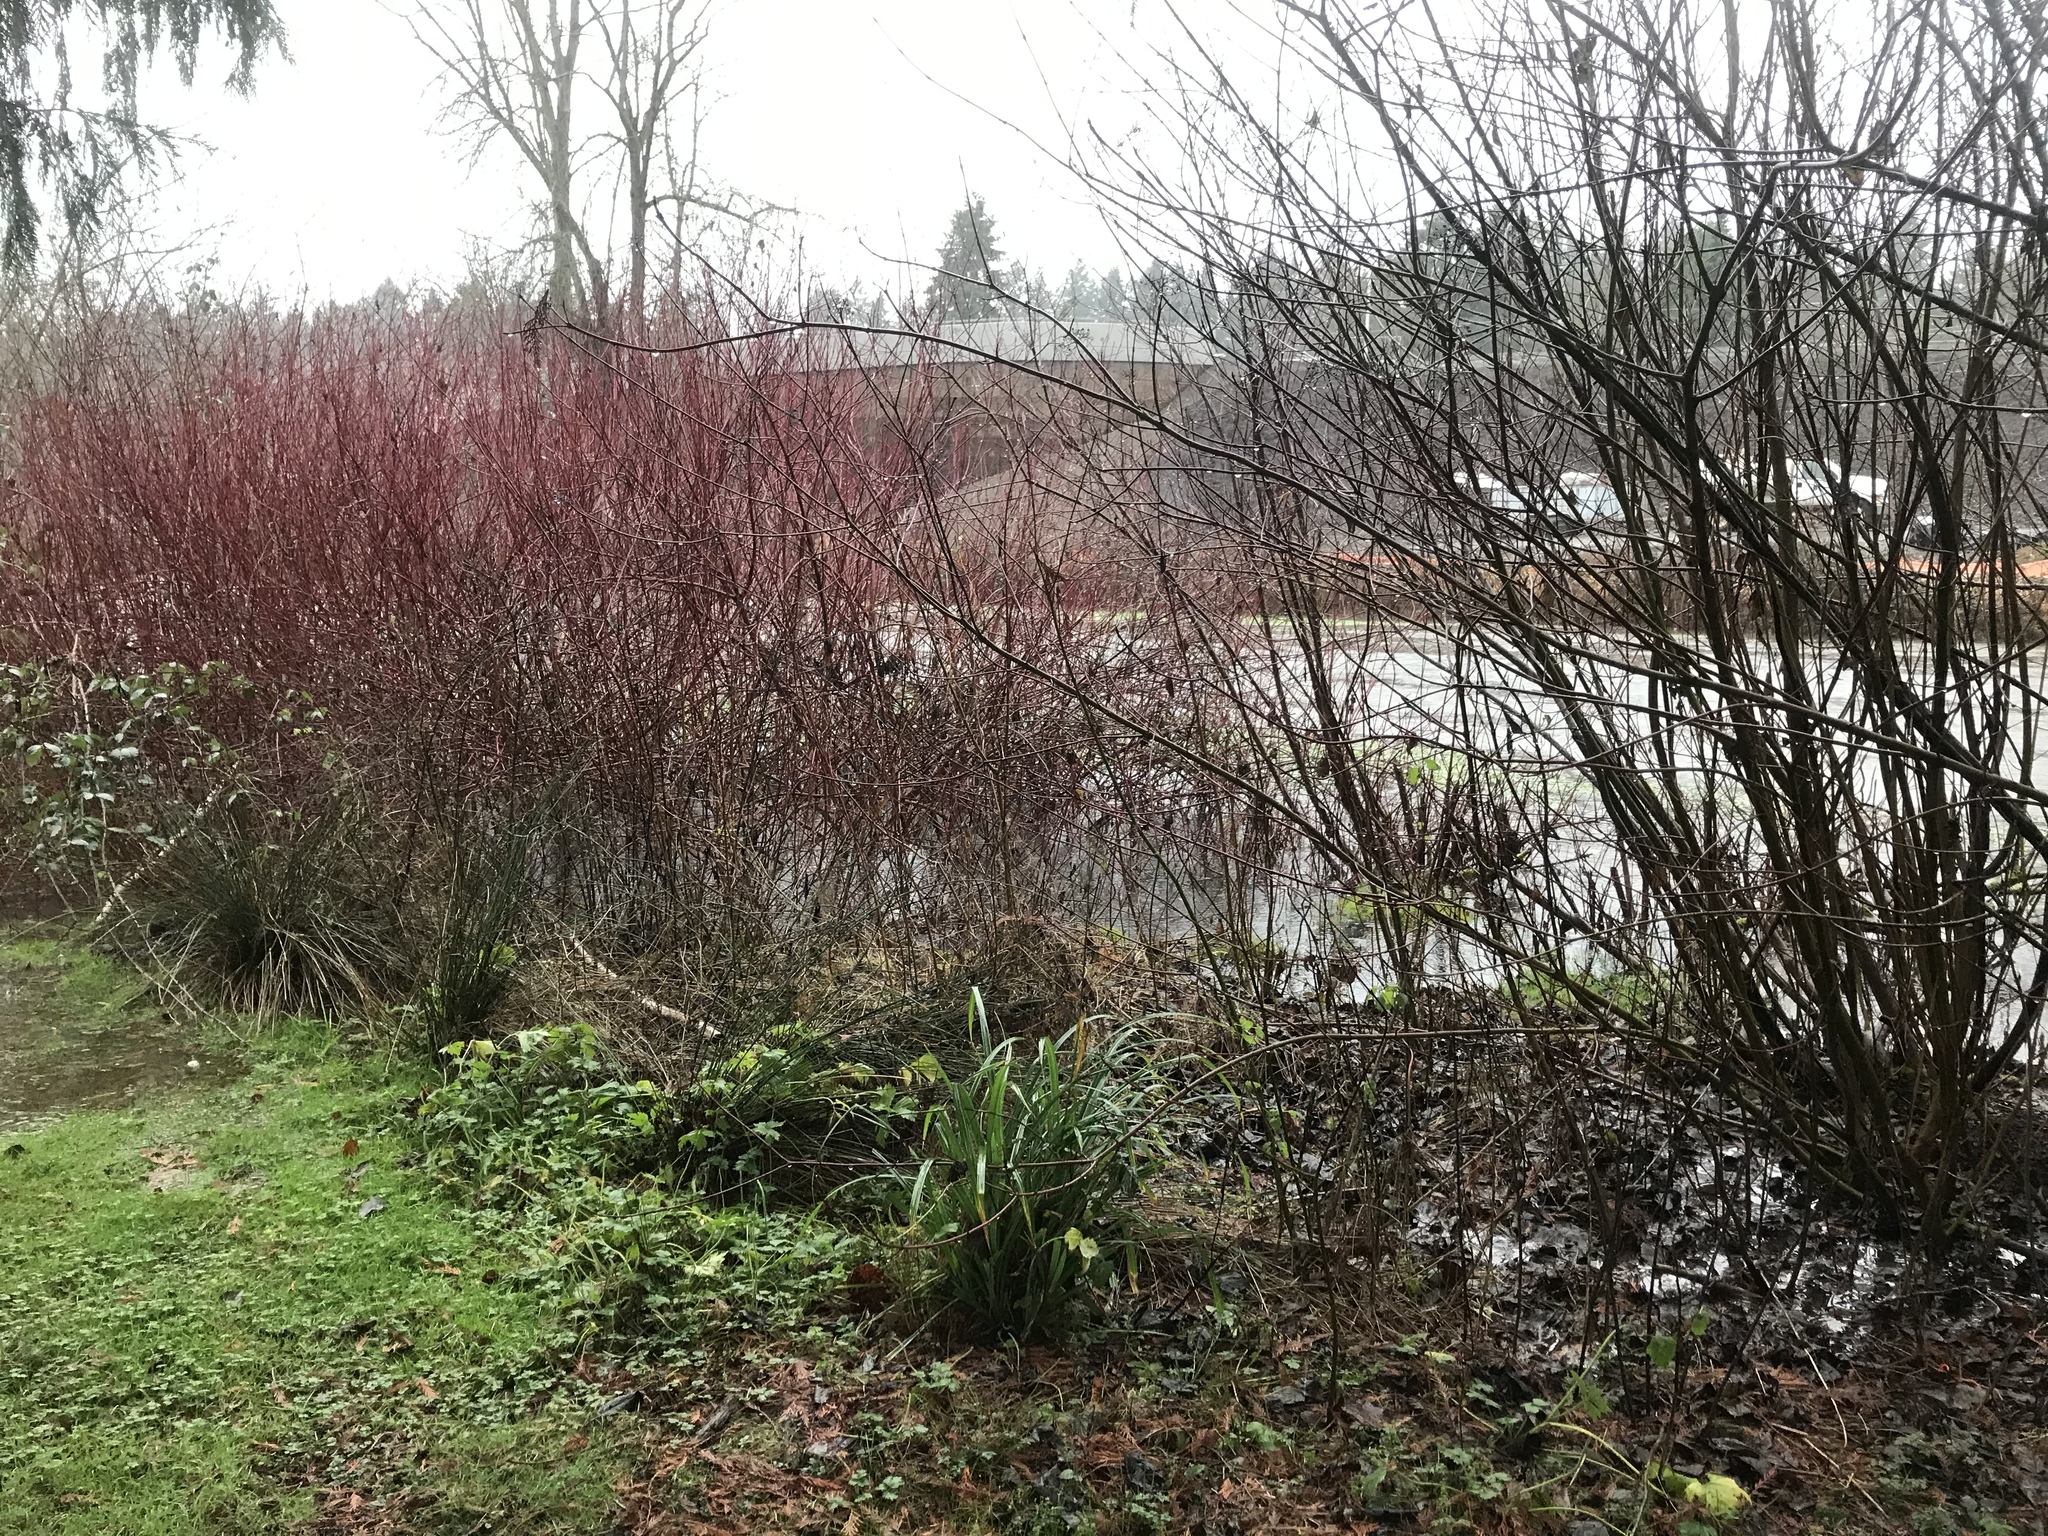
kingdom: Plantae
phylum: Tracheophyta
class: Liliopsida
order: Poales
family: Cyperaceae
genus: Carex
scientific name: Carex pendula
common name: Pendulous sedge
